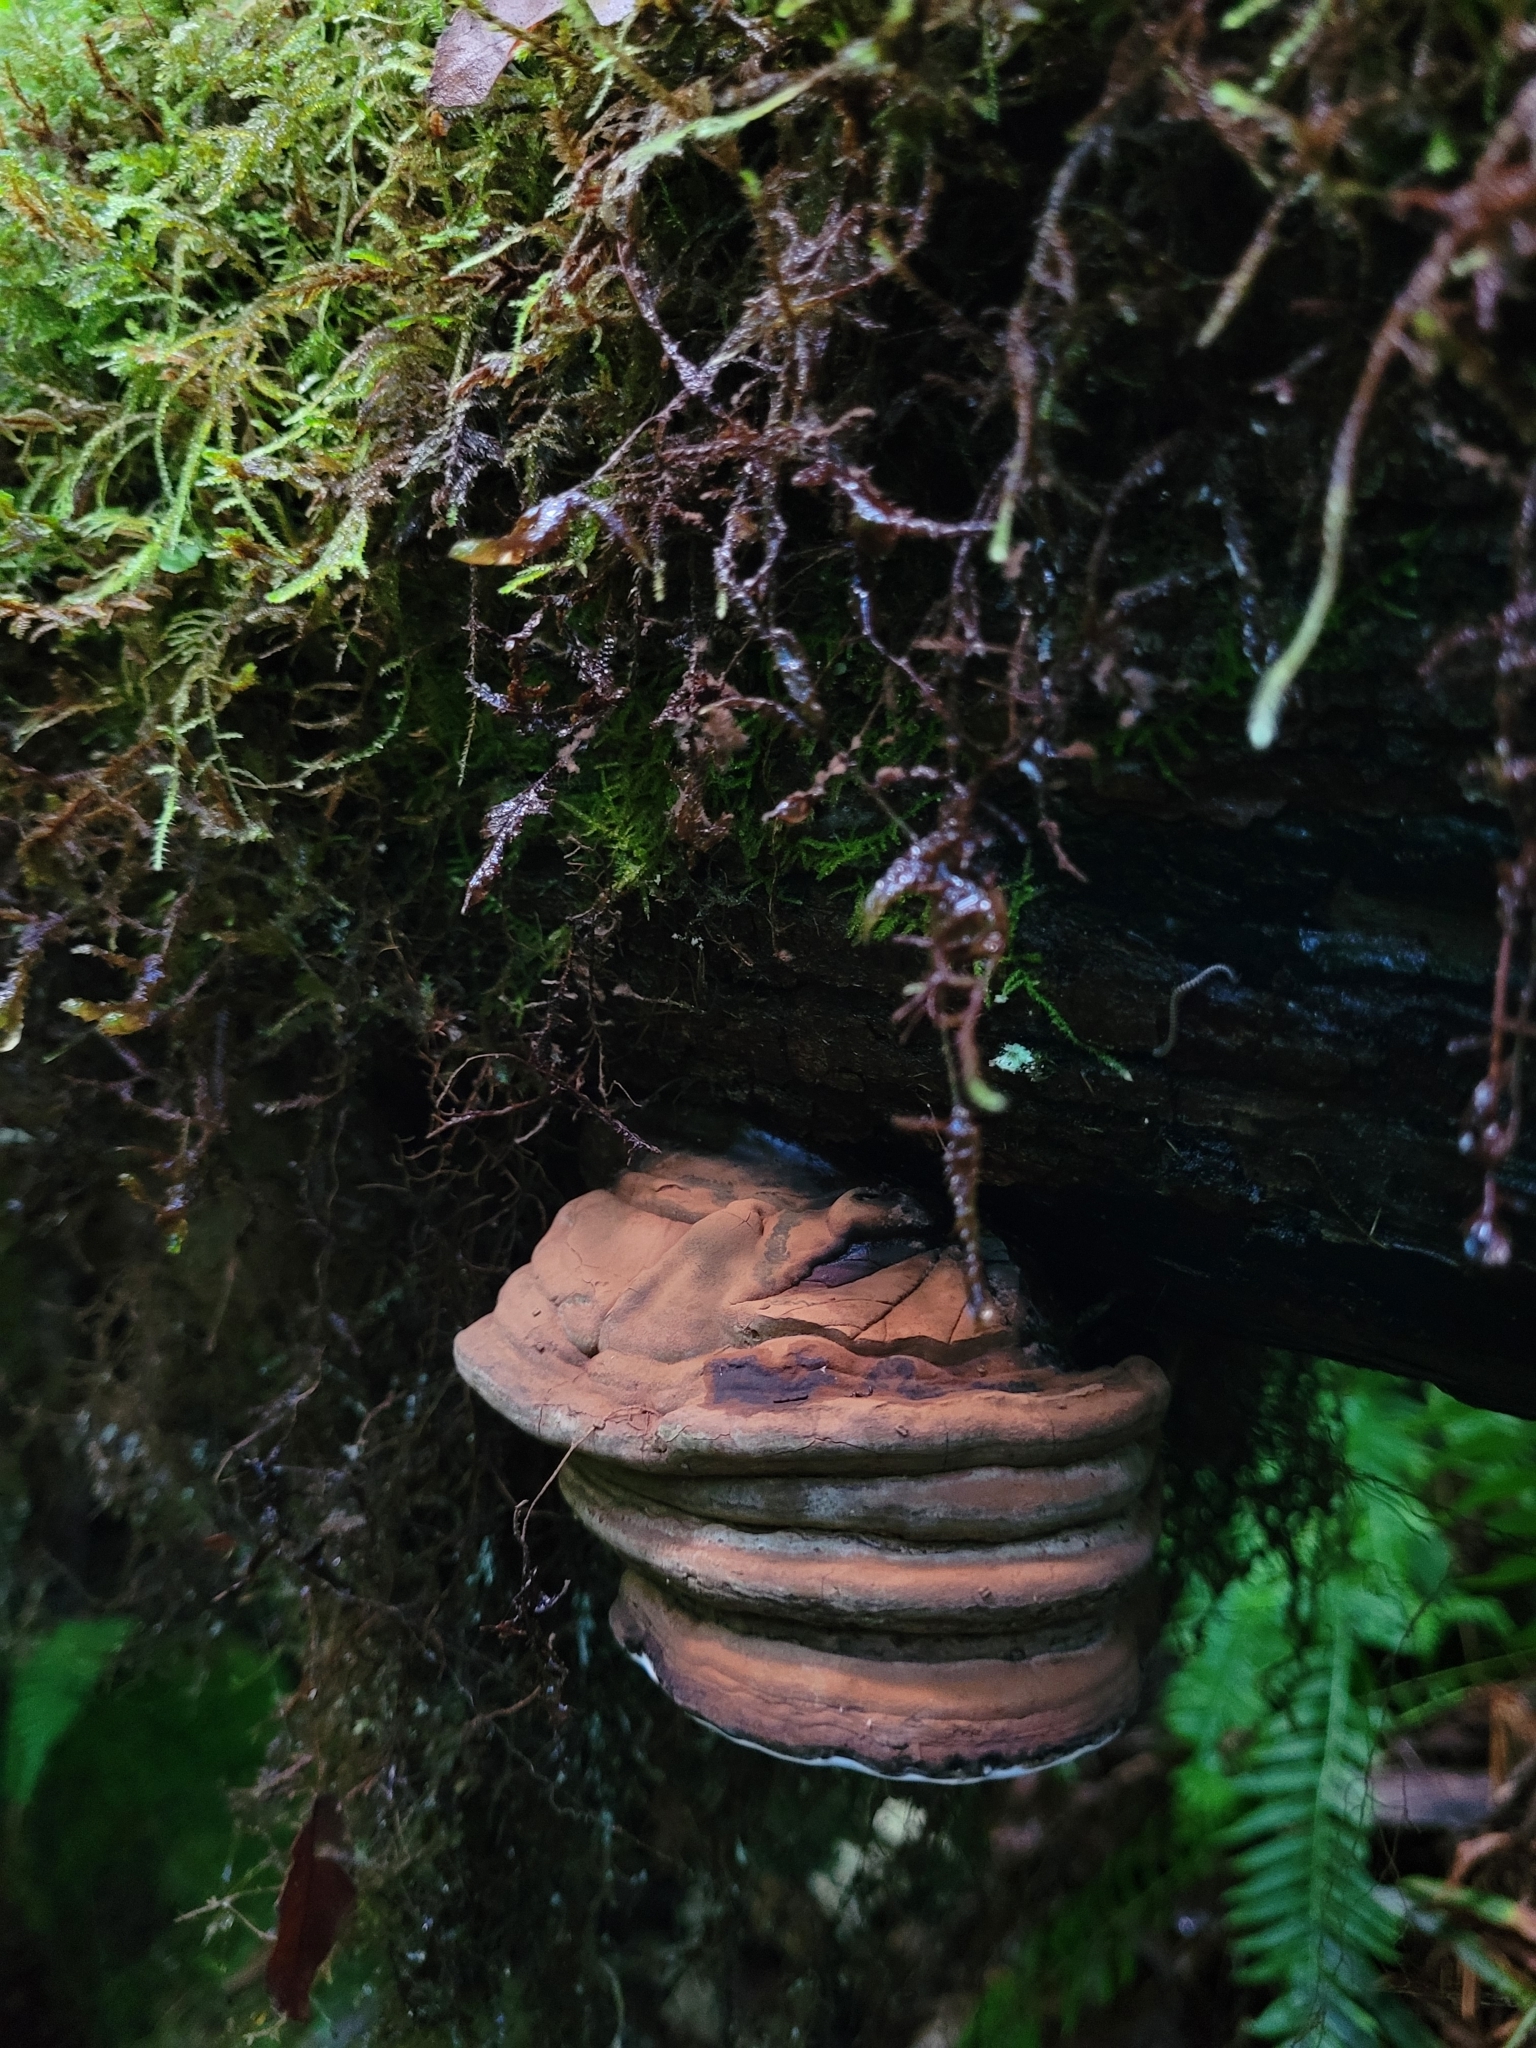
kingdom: Fungi
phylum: Basidiomycota
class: Agaricomycetes
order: Polyporales
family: Polyporaceae
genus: Ganoderma
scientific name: Ganoderma applanatum
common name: Artist's bracket
